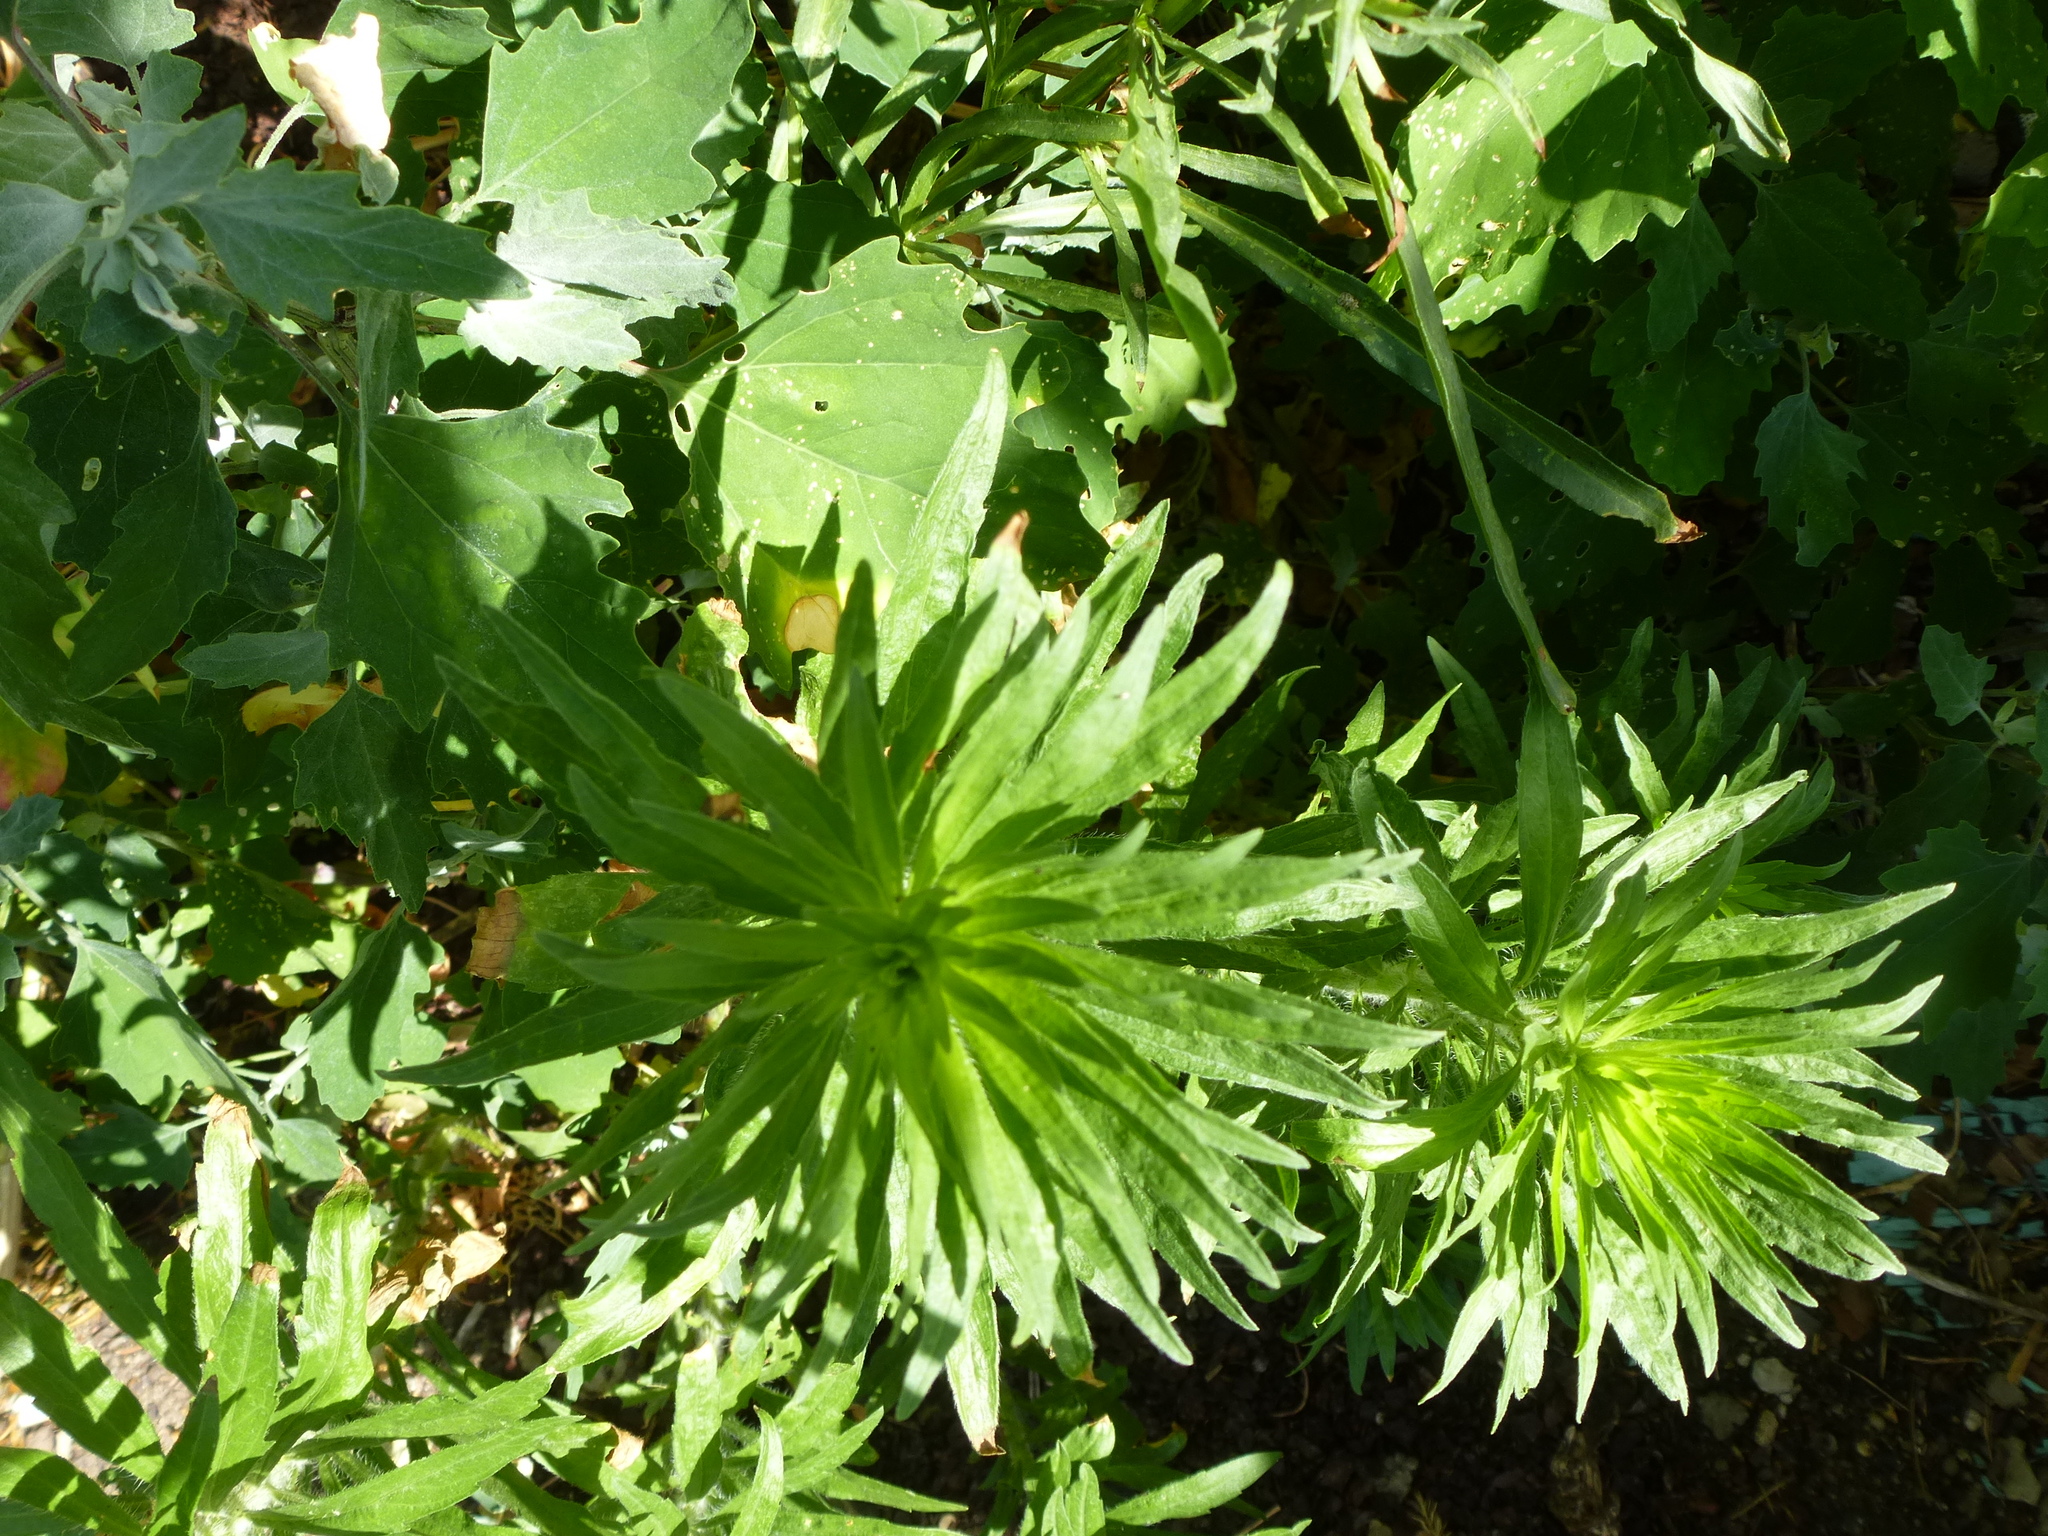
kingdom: Plantae
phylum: Tracheophyta
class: Magnoliopsida
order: Asterales
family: Asteraceae
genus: Erigeron
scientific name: Erigeron canadensis
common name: Canadian fleabane
